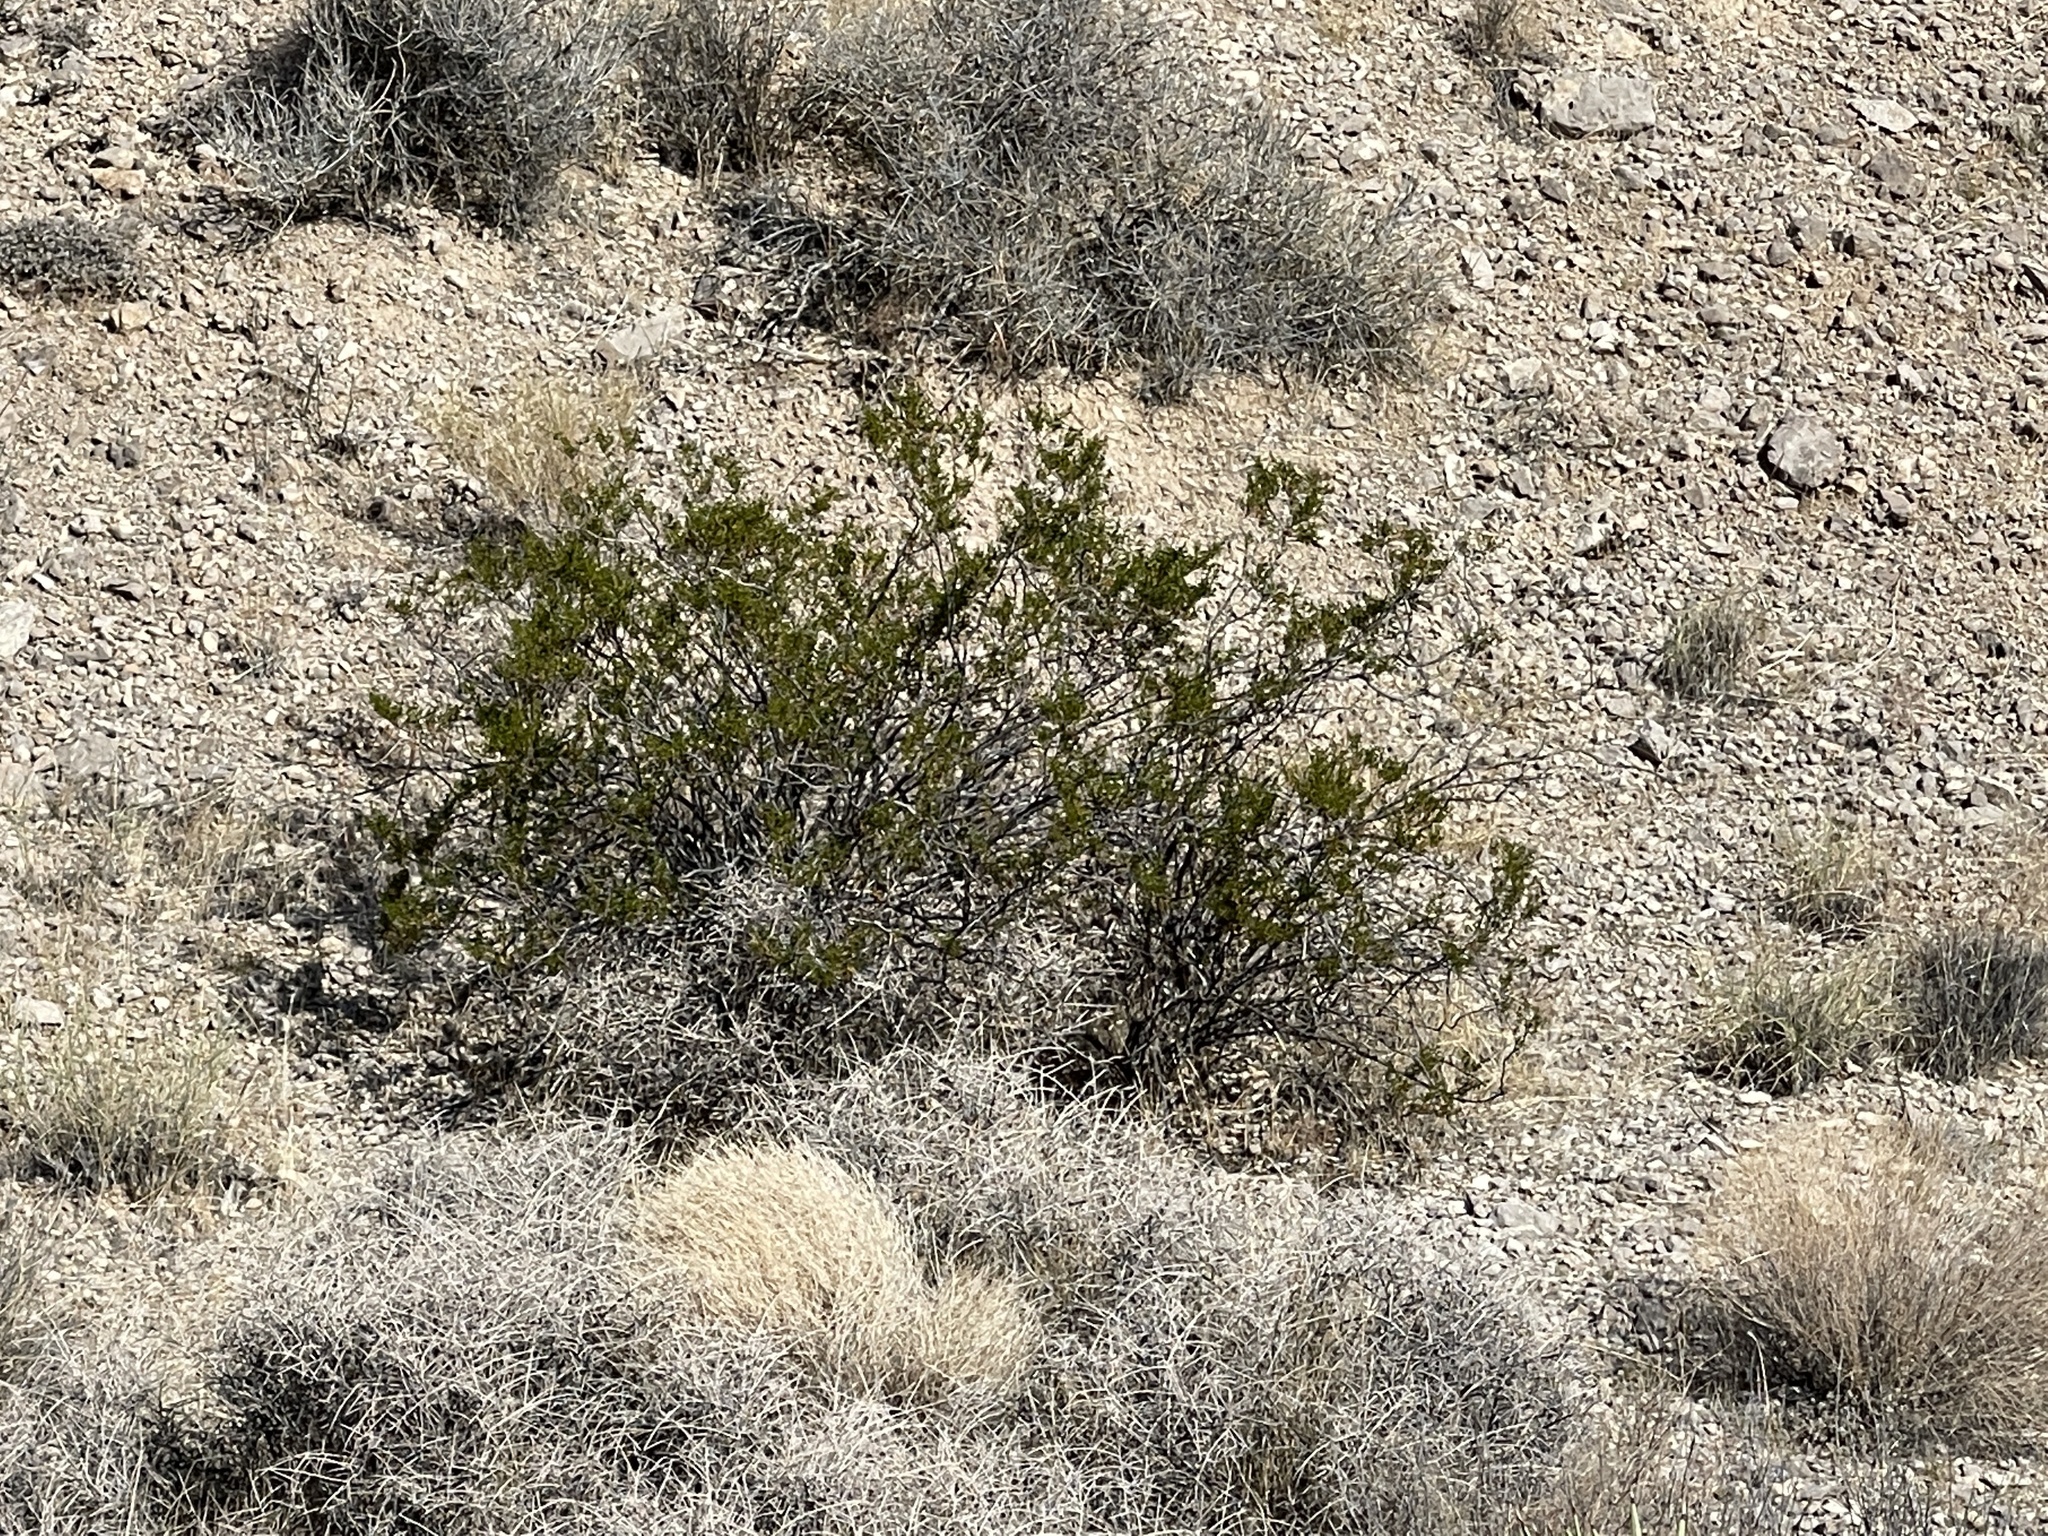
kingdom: Plantae
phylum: Tracheophyta
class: Magnoliopsida
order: Zygophyllales
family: Zygophyllaceae
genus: Larrea
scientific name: Larrea tridentata
